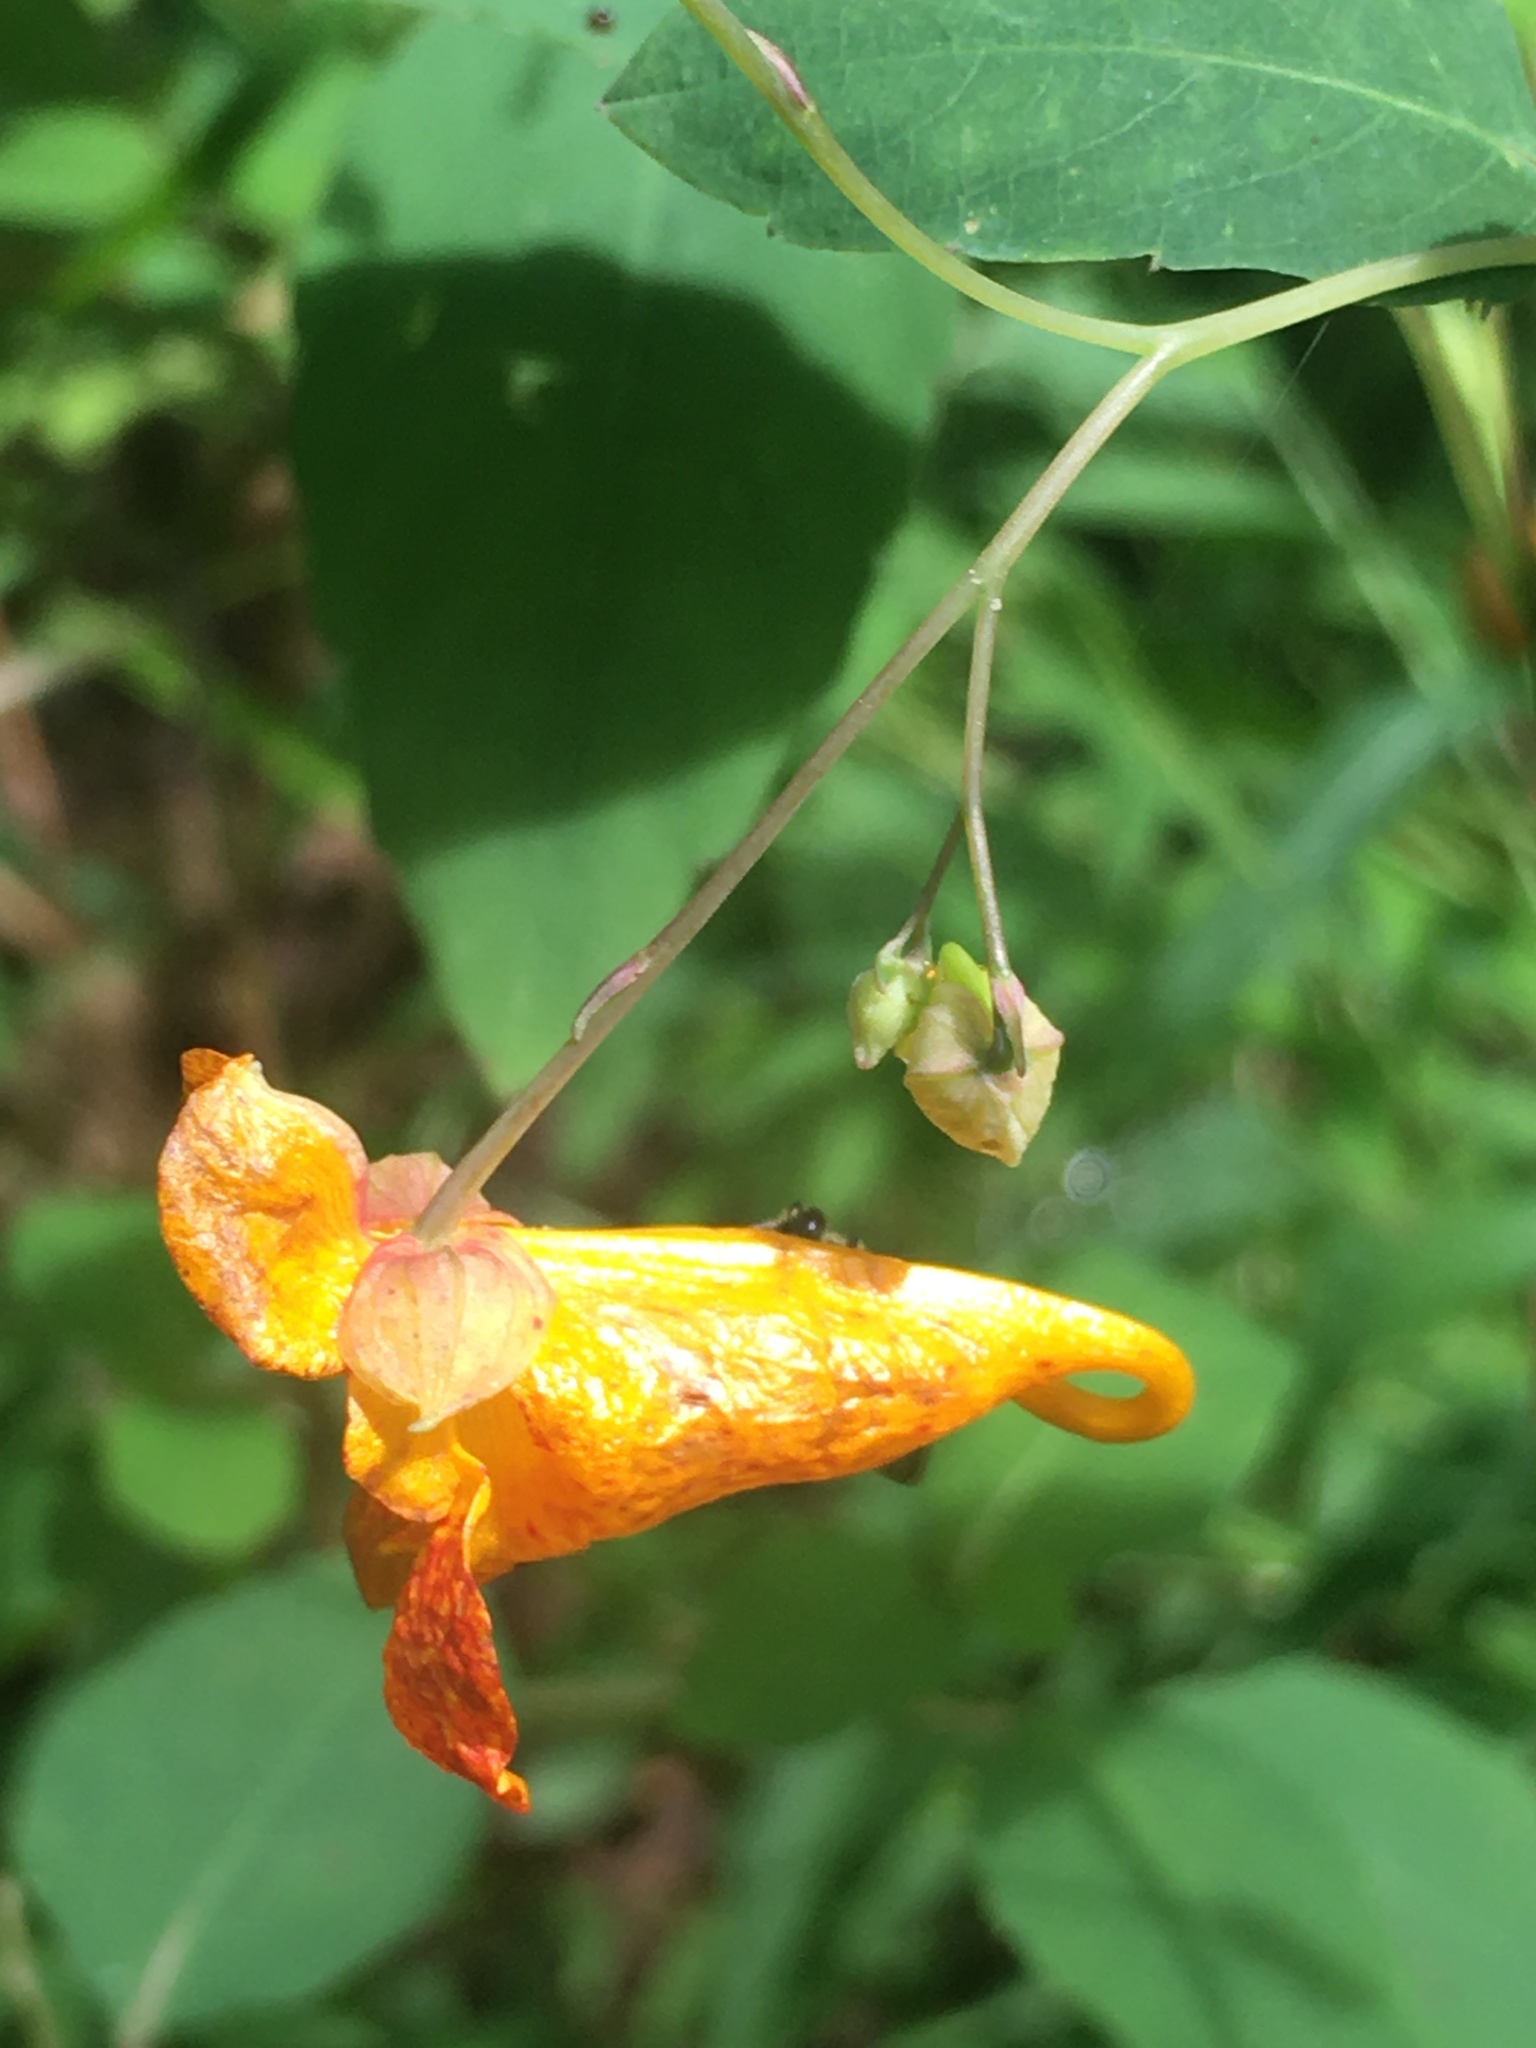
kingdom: Plantae
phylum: Tracheophyta
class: Magnoliopsida
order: Ericales
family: Balsaminaceae
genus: Impatiens
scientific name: Impatiens capensis
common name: Orange balsam
